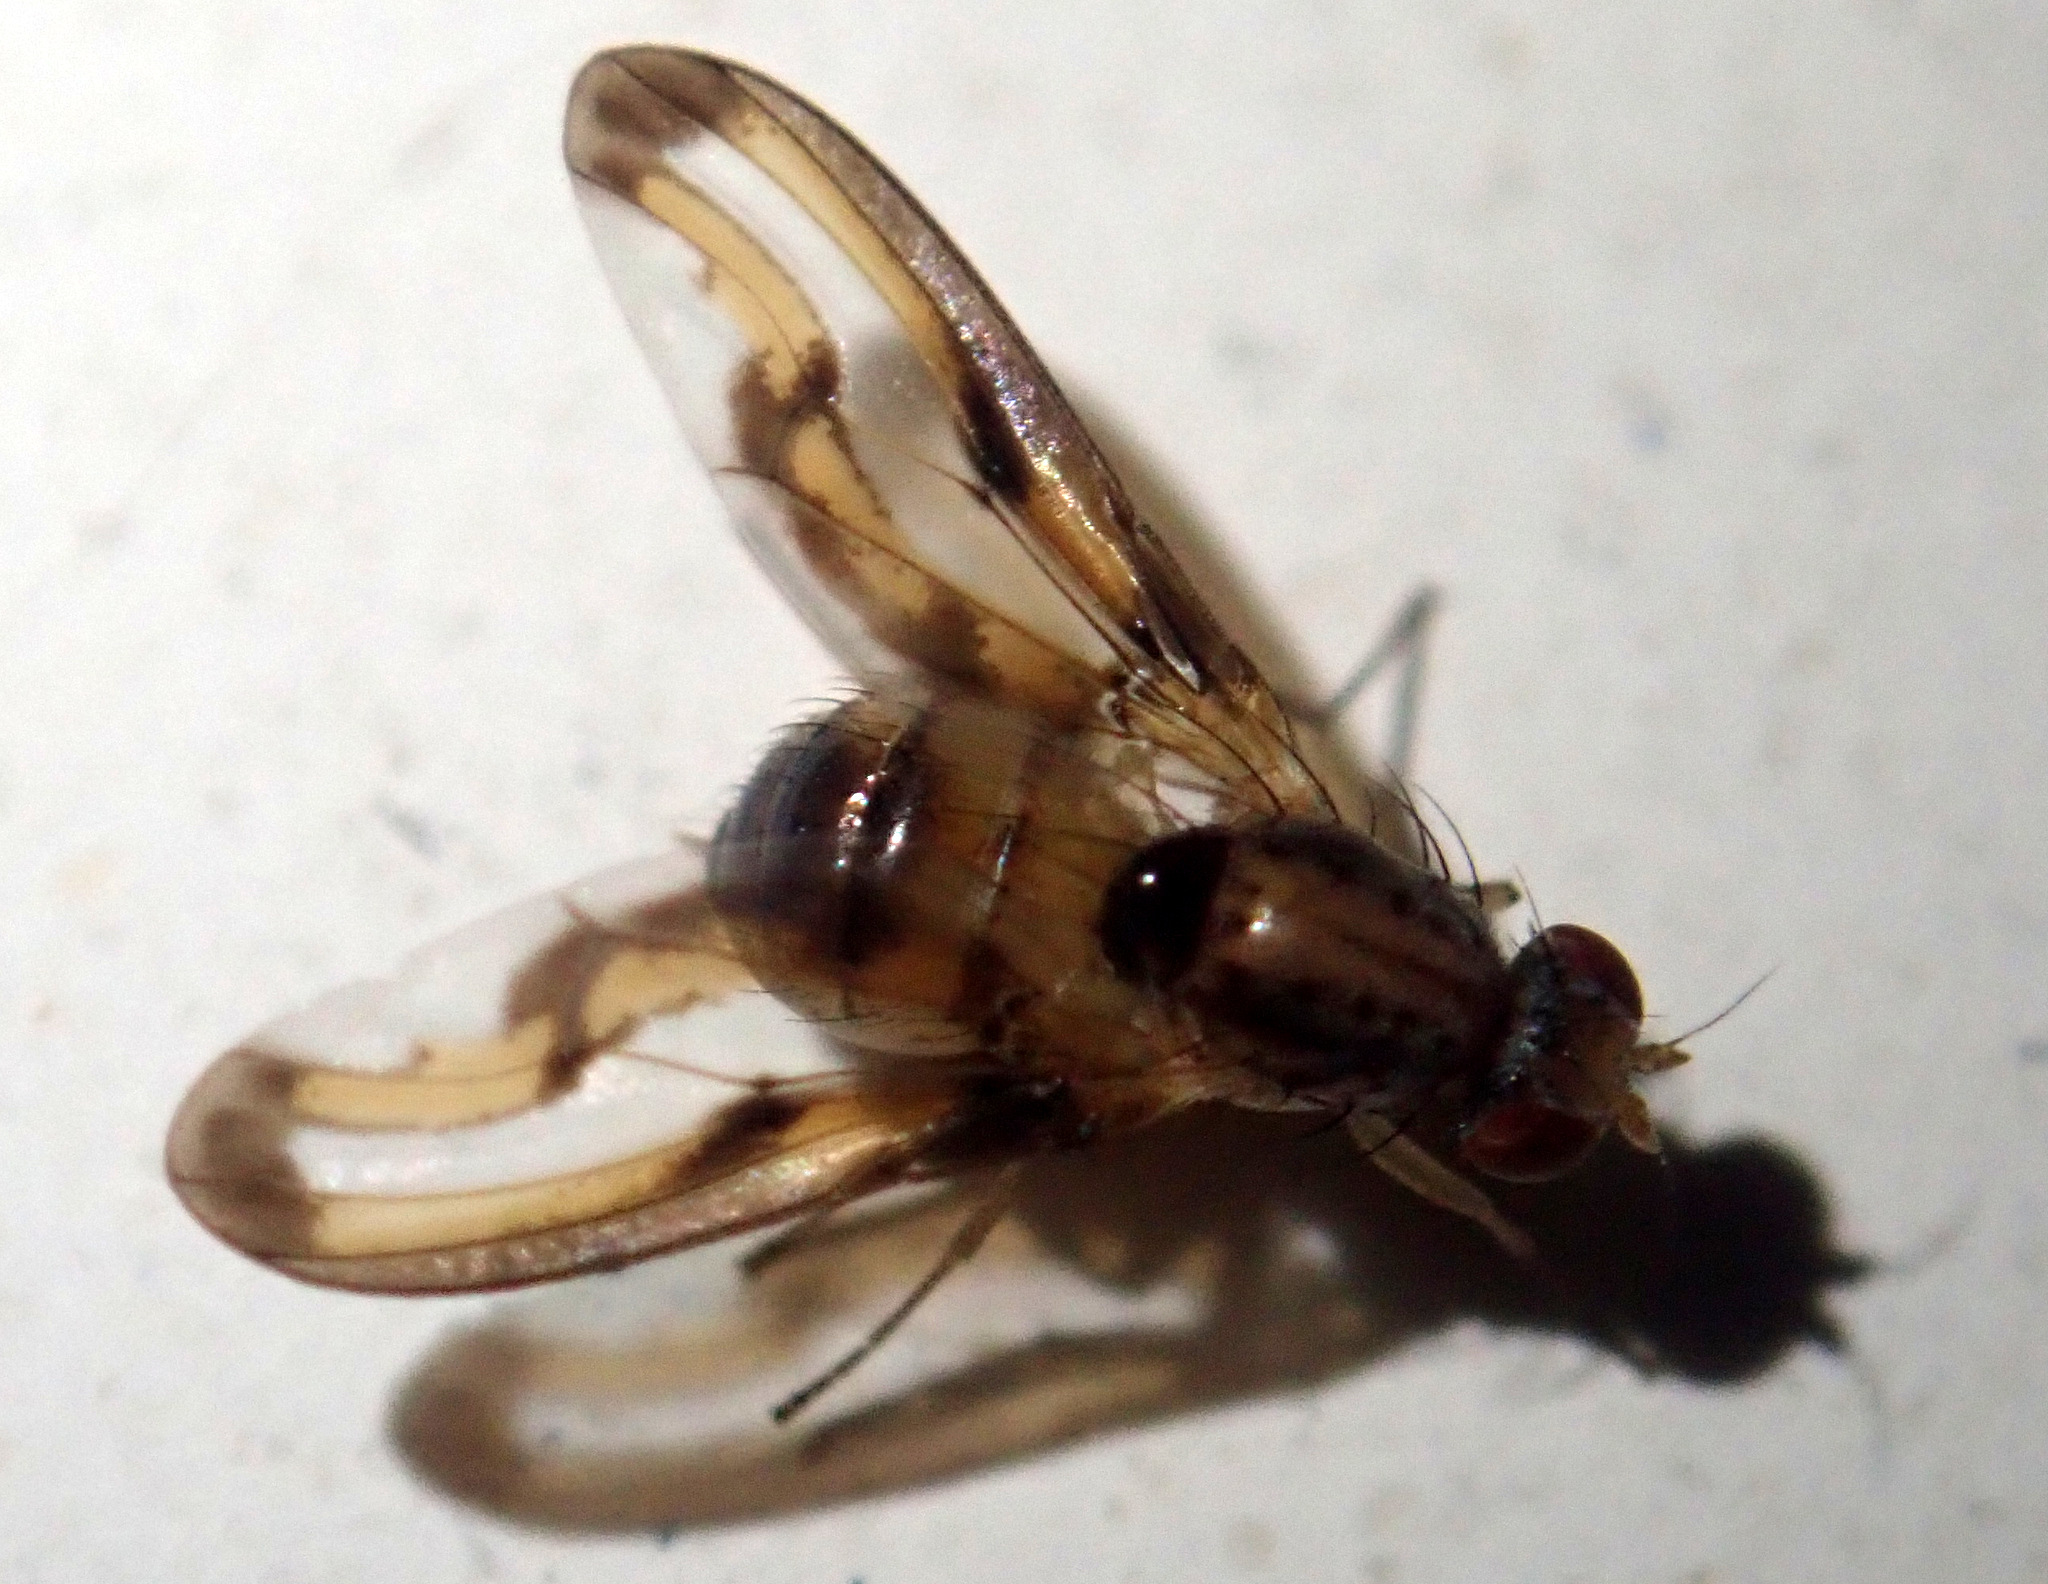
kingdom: Animalia
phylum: Arthropoda
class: Insecta
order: Diptera
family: Pallopteridae
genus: Toxonevra
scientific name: Toxonevra muliebris
